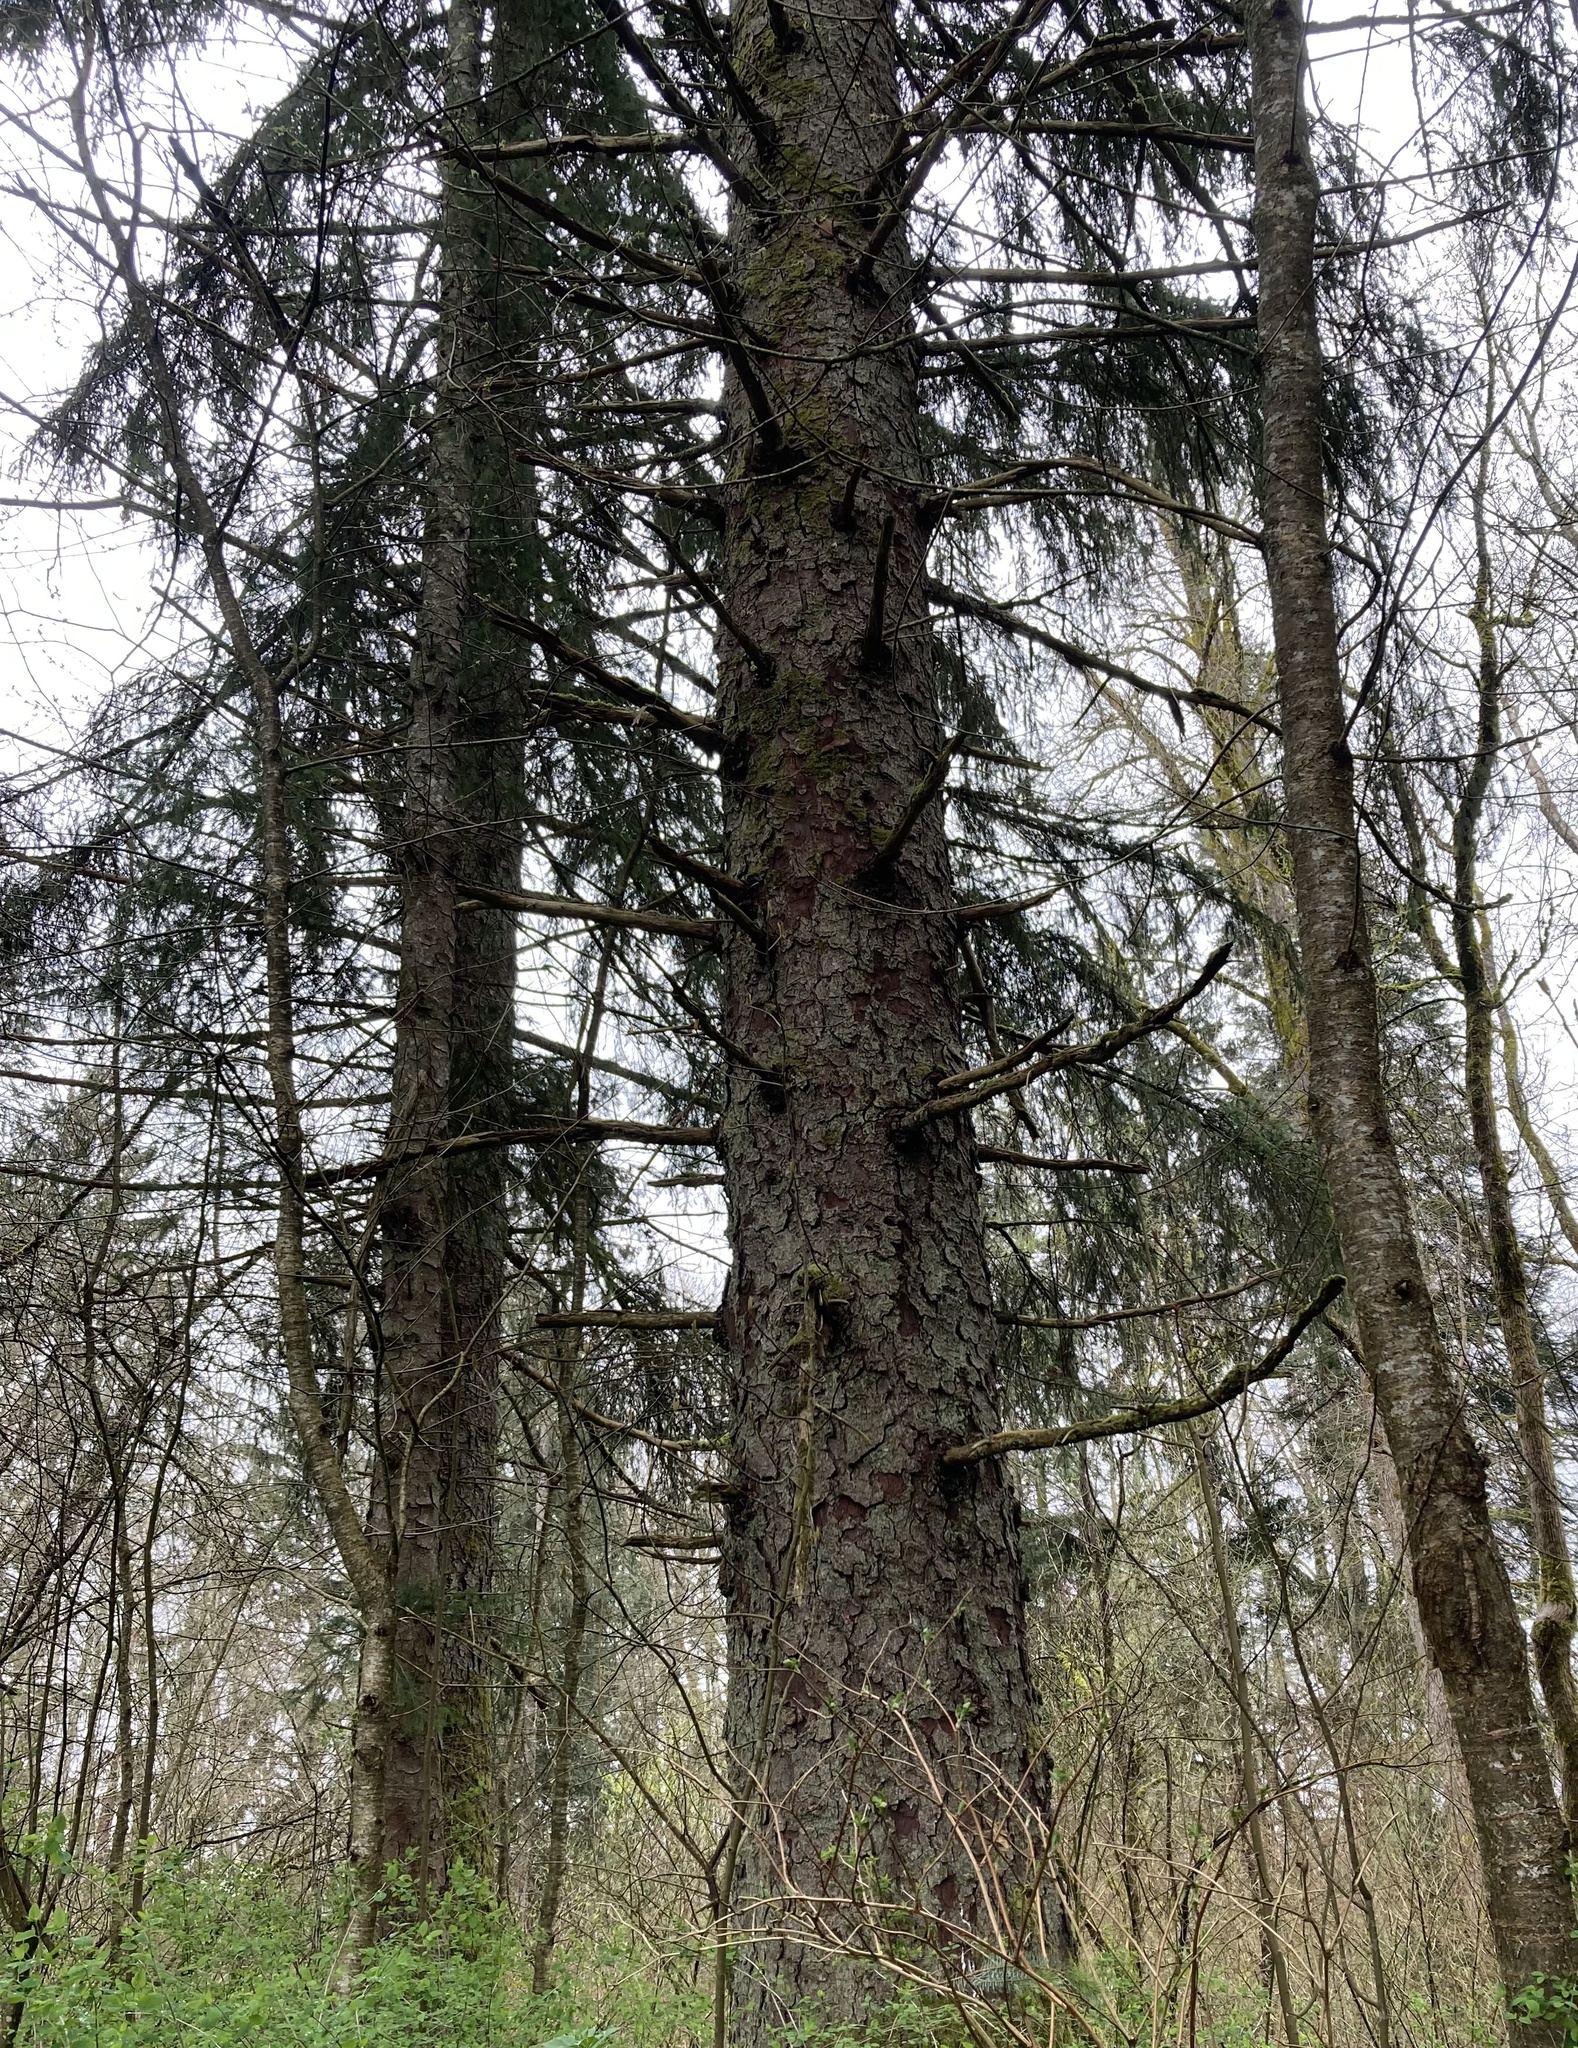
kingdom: Plantae
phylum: Tracheophyta
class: Pinopsida
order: Pinales
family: Pinaceae
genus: Picea
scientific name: Picea sitchensis
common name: Sitka spruce
